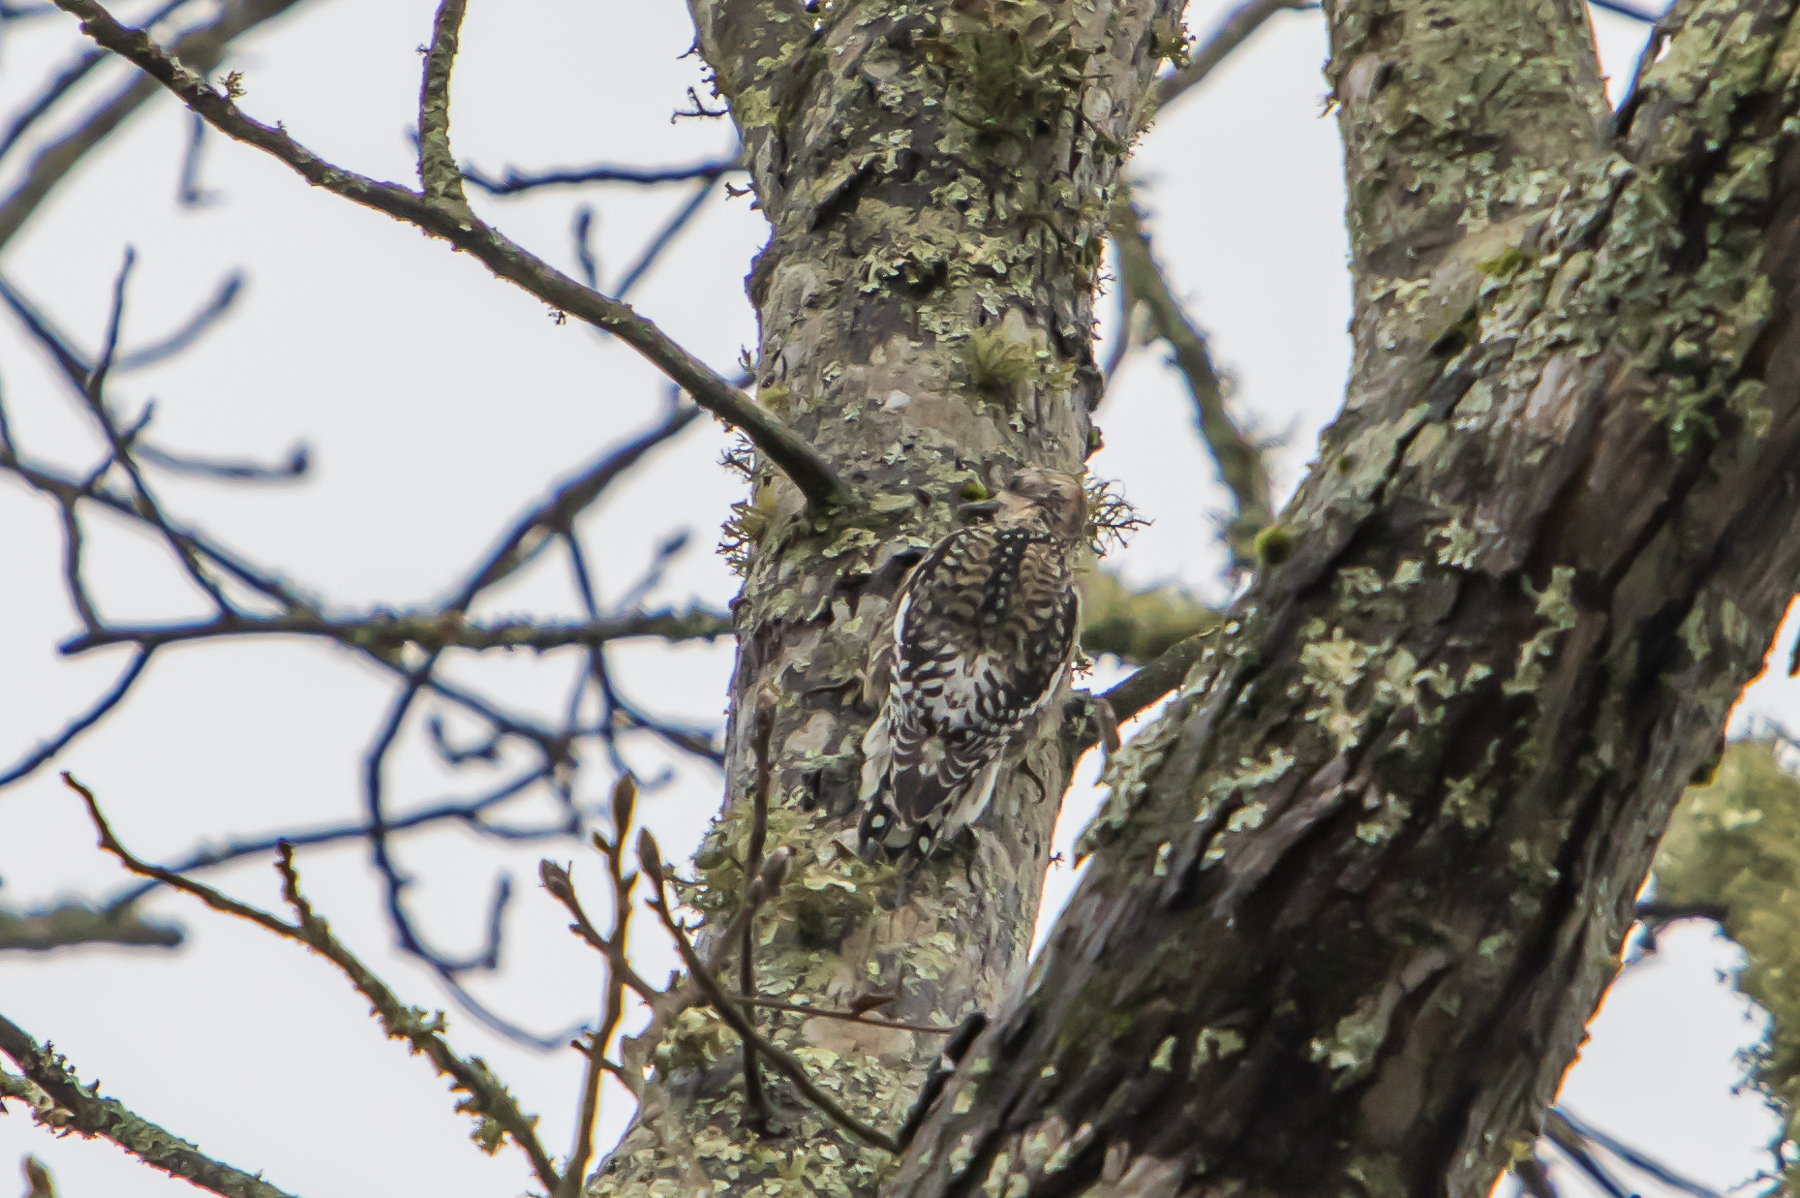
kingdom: Animalia
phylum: Chordata
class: Aves
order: Piciformes
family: Picidae
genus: Sphyrapicus
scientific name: Sphyrapicus varius
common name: Yellow-bellied sapsucker
